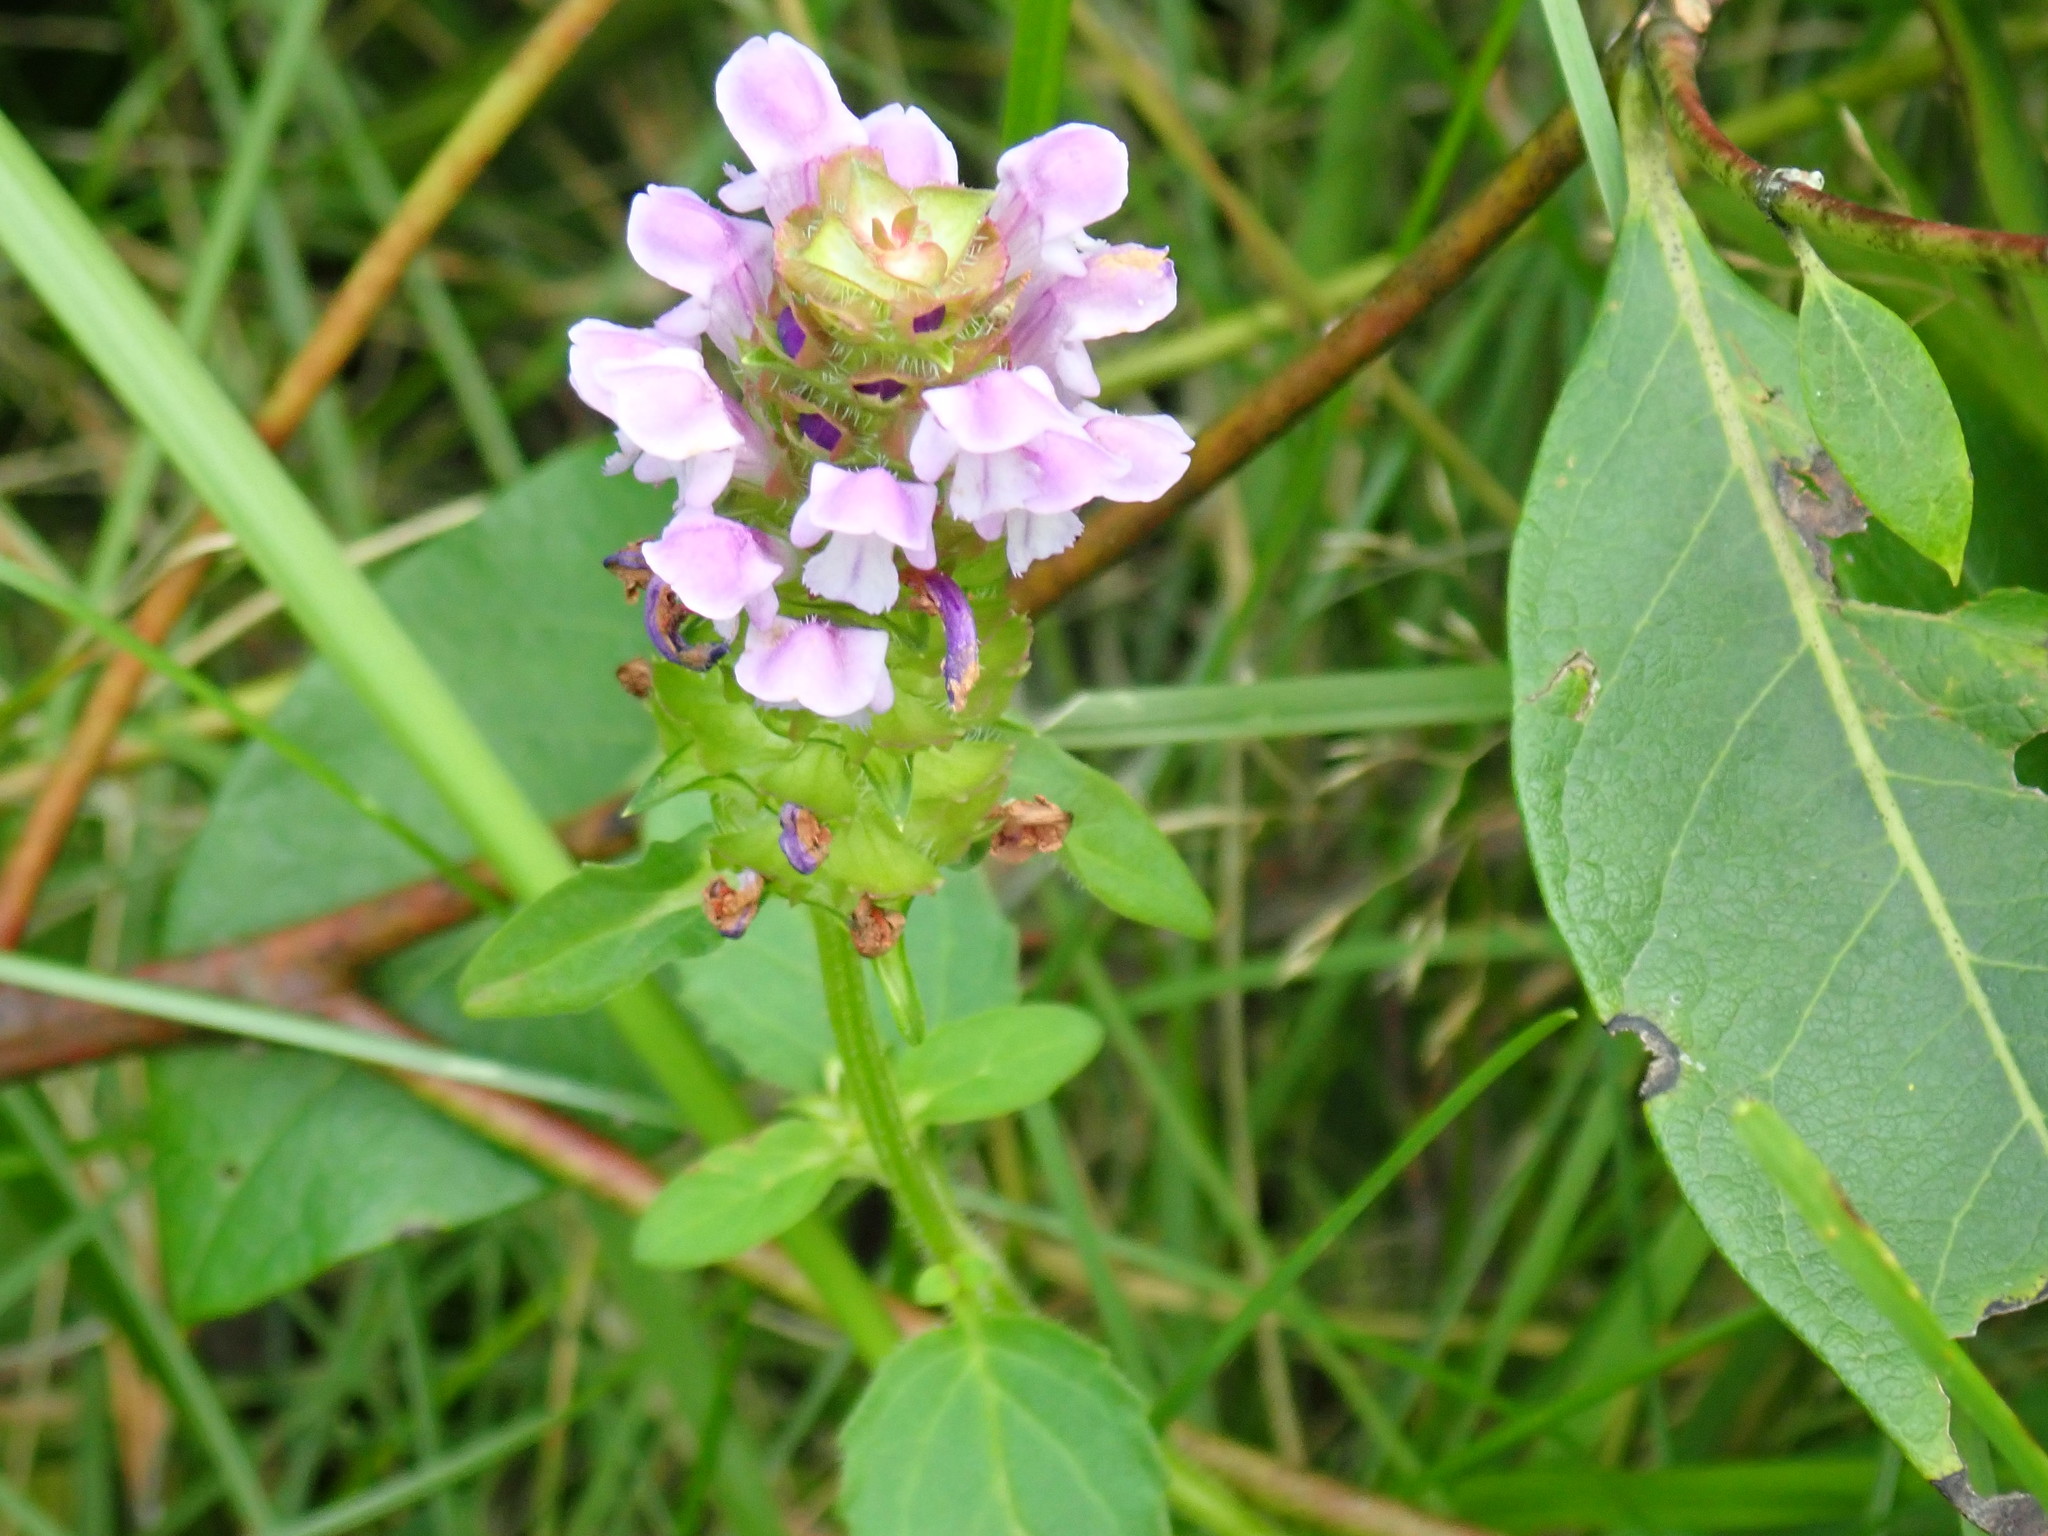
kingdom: Plantae
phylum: Tracheophyta
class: Magnoliopsida
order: Lamiales
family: Lamiaceae
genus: Prunella
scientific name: Prunella vulgaris
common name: Heal-all
